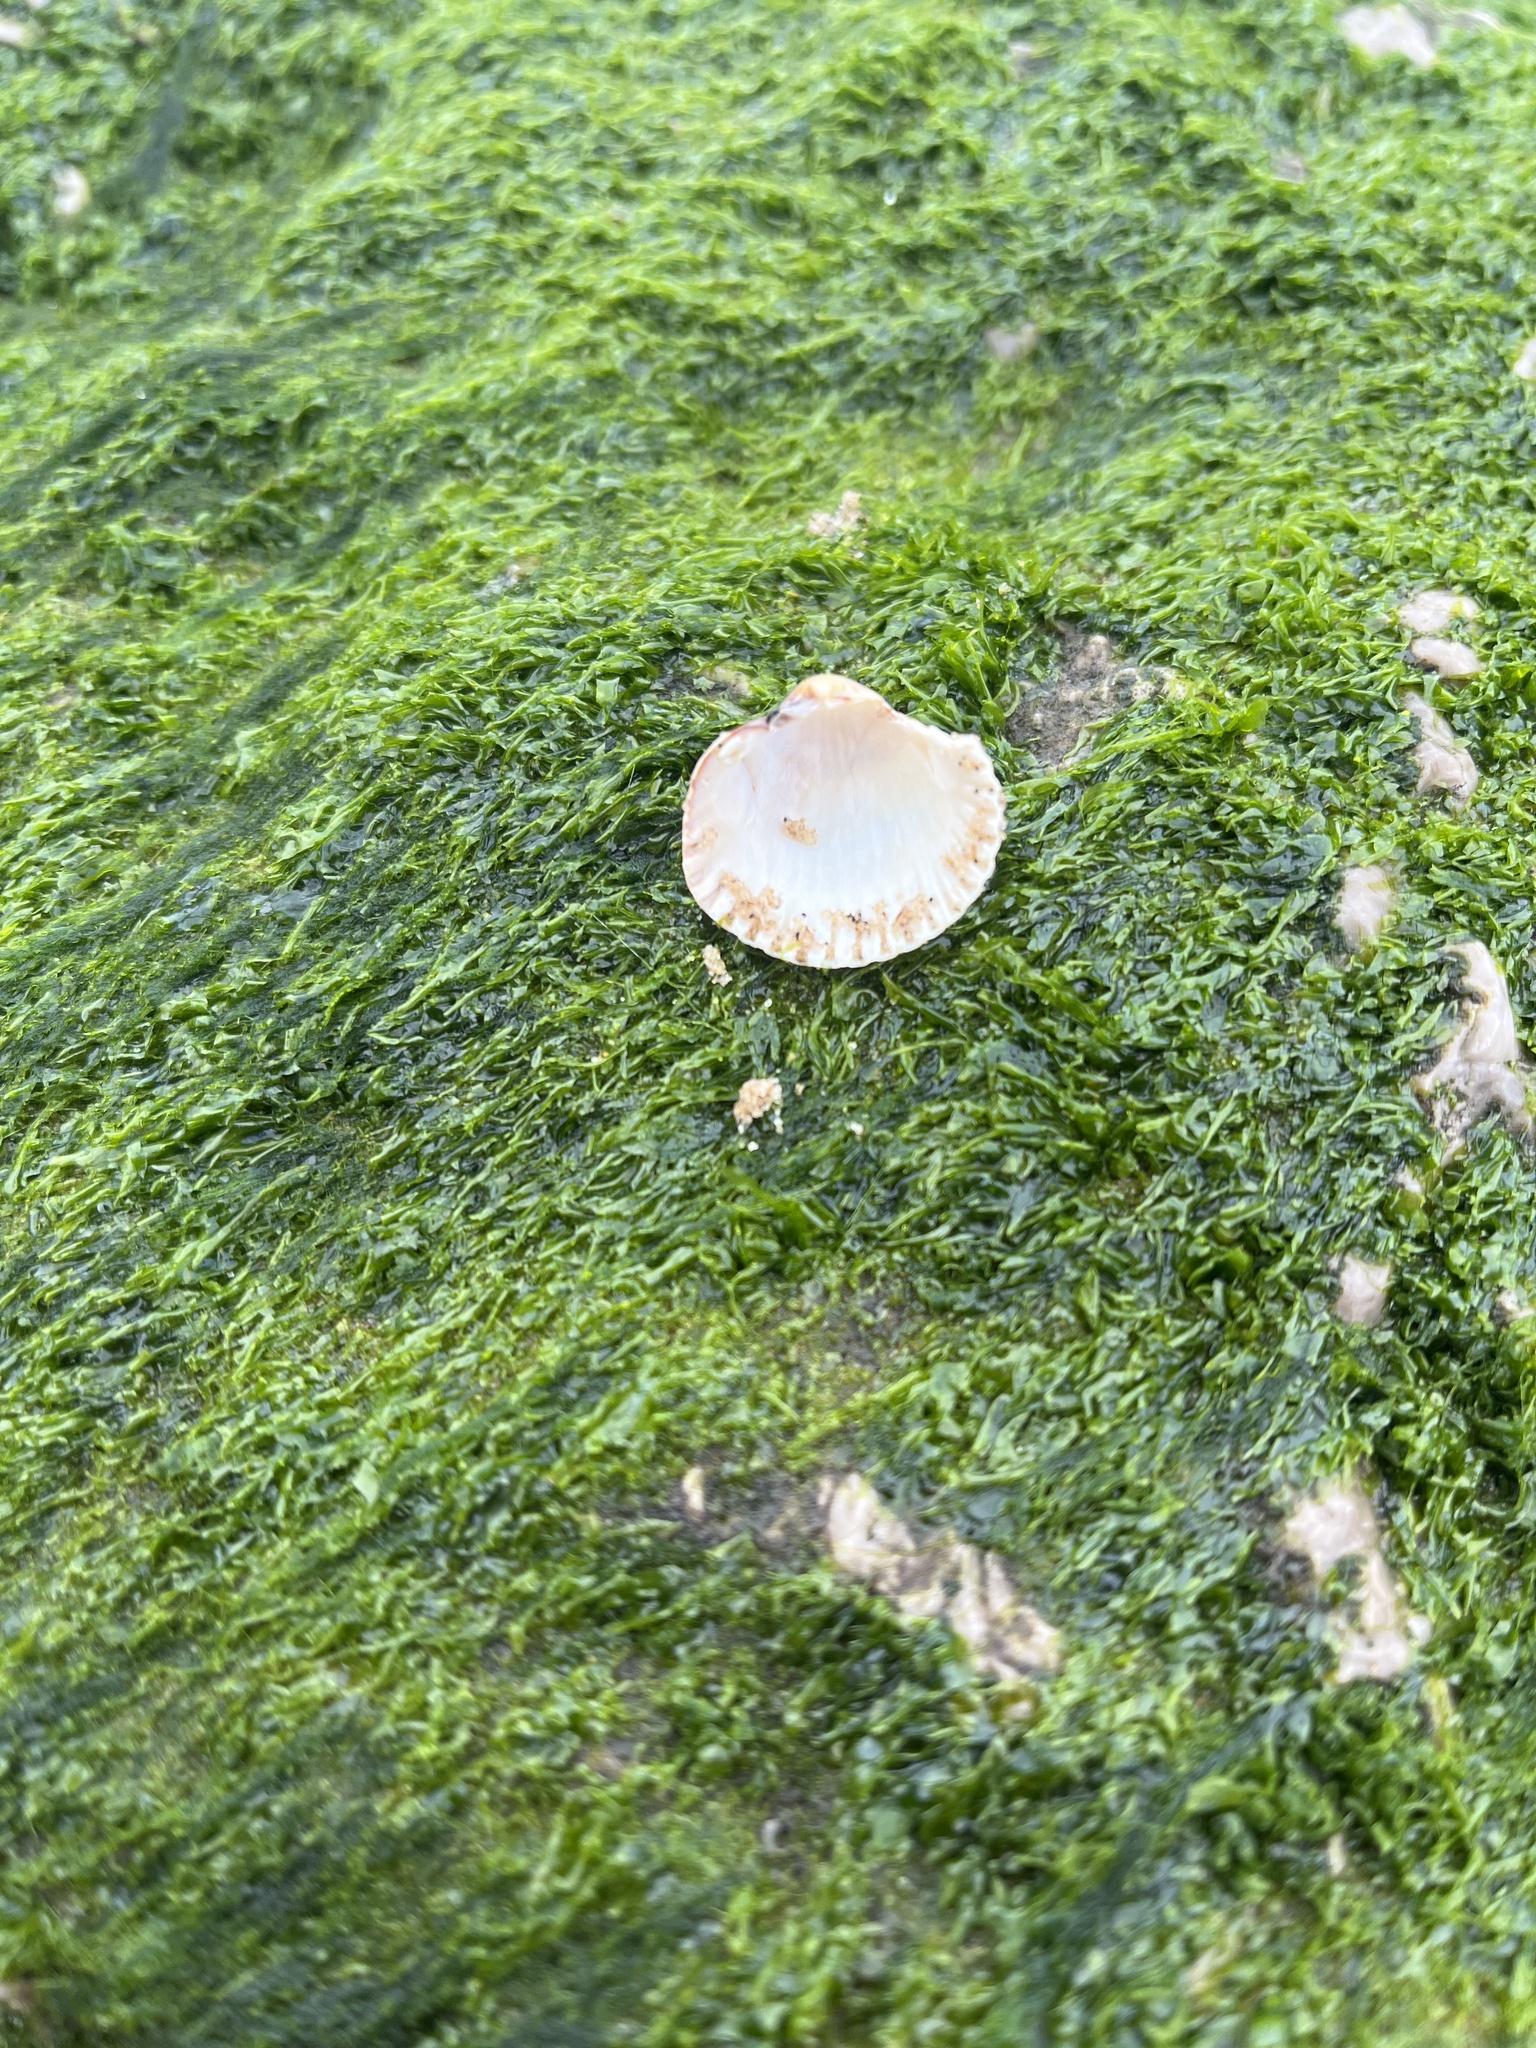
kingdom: Animalia
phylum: Mollusca
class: Bivalvia
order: Cardiida
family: Cardiidae
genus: Cerastoderma
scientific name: Cerastoderma edule
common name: Common cockle
